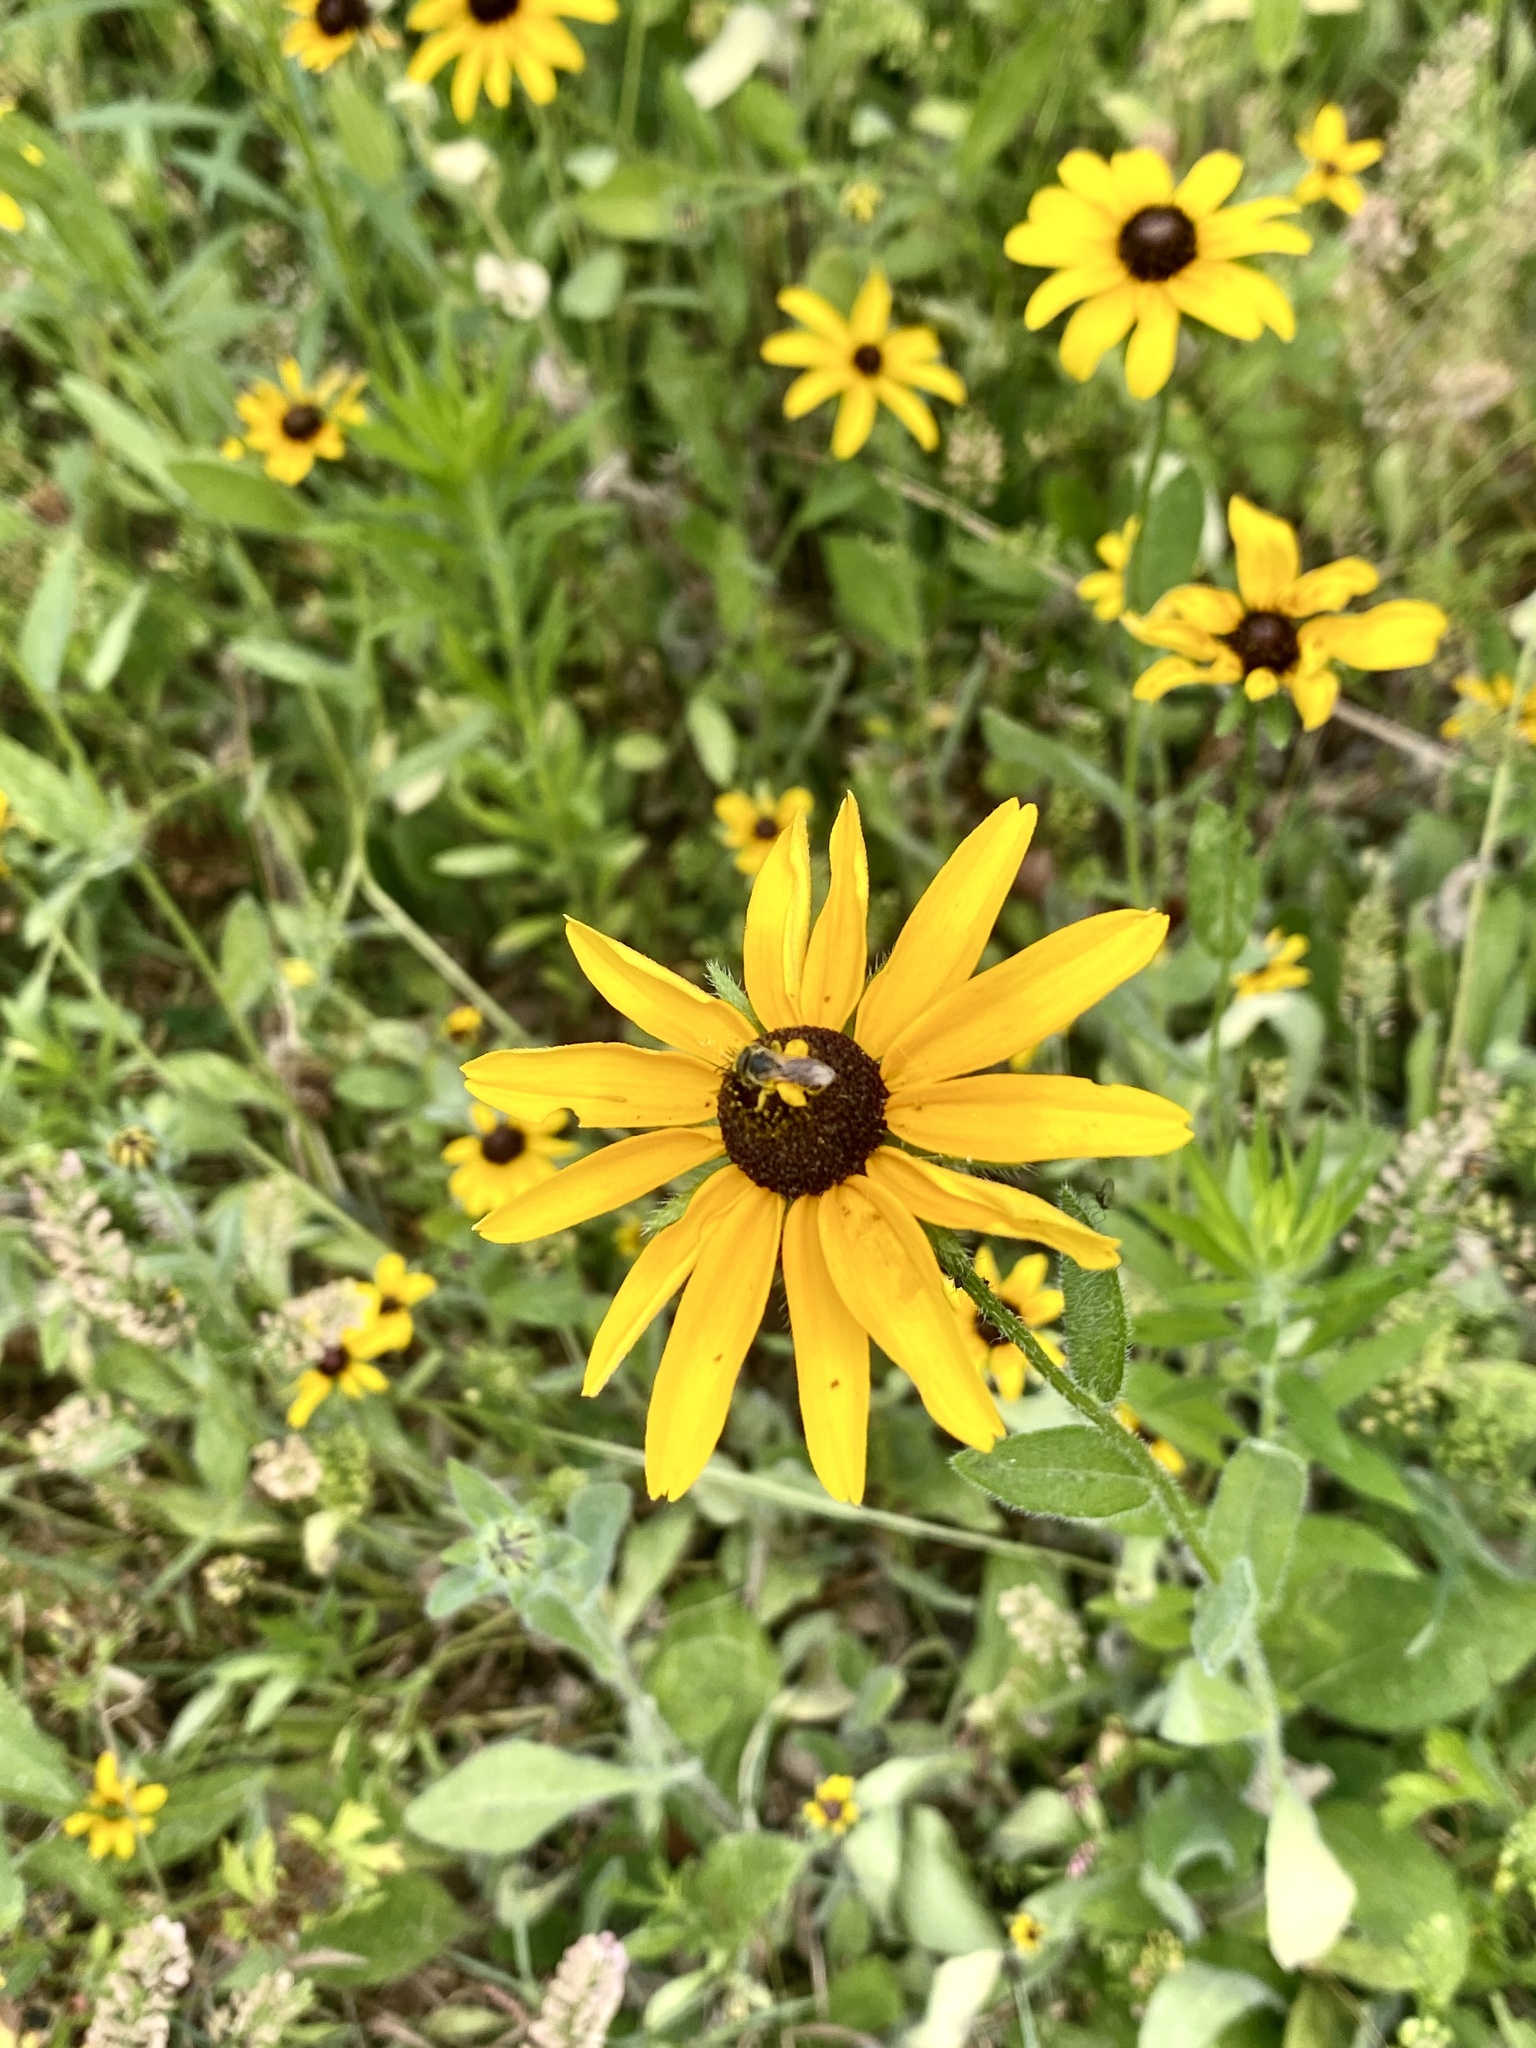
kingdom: Plantae
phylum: Tracheophyta
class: Magnoliopsida
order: Asterales
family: Asteraceae
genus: Rudbeckia
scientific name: Rudbeckia hirta
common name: Black-eyed-susan
